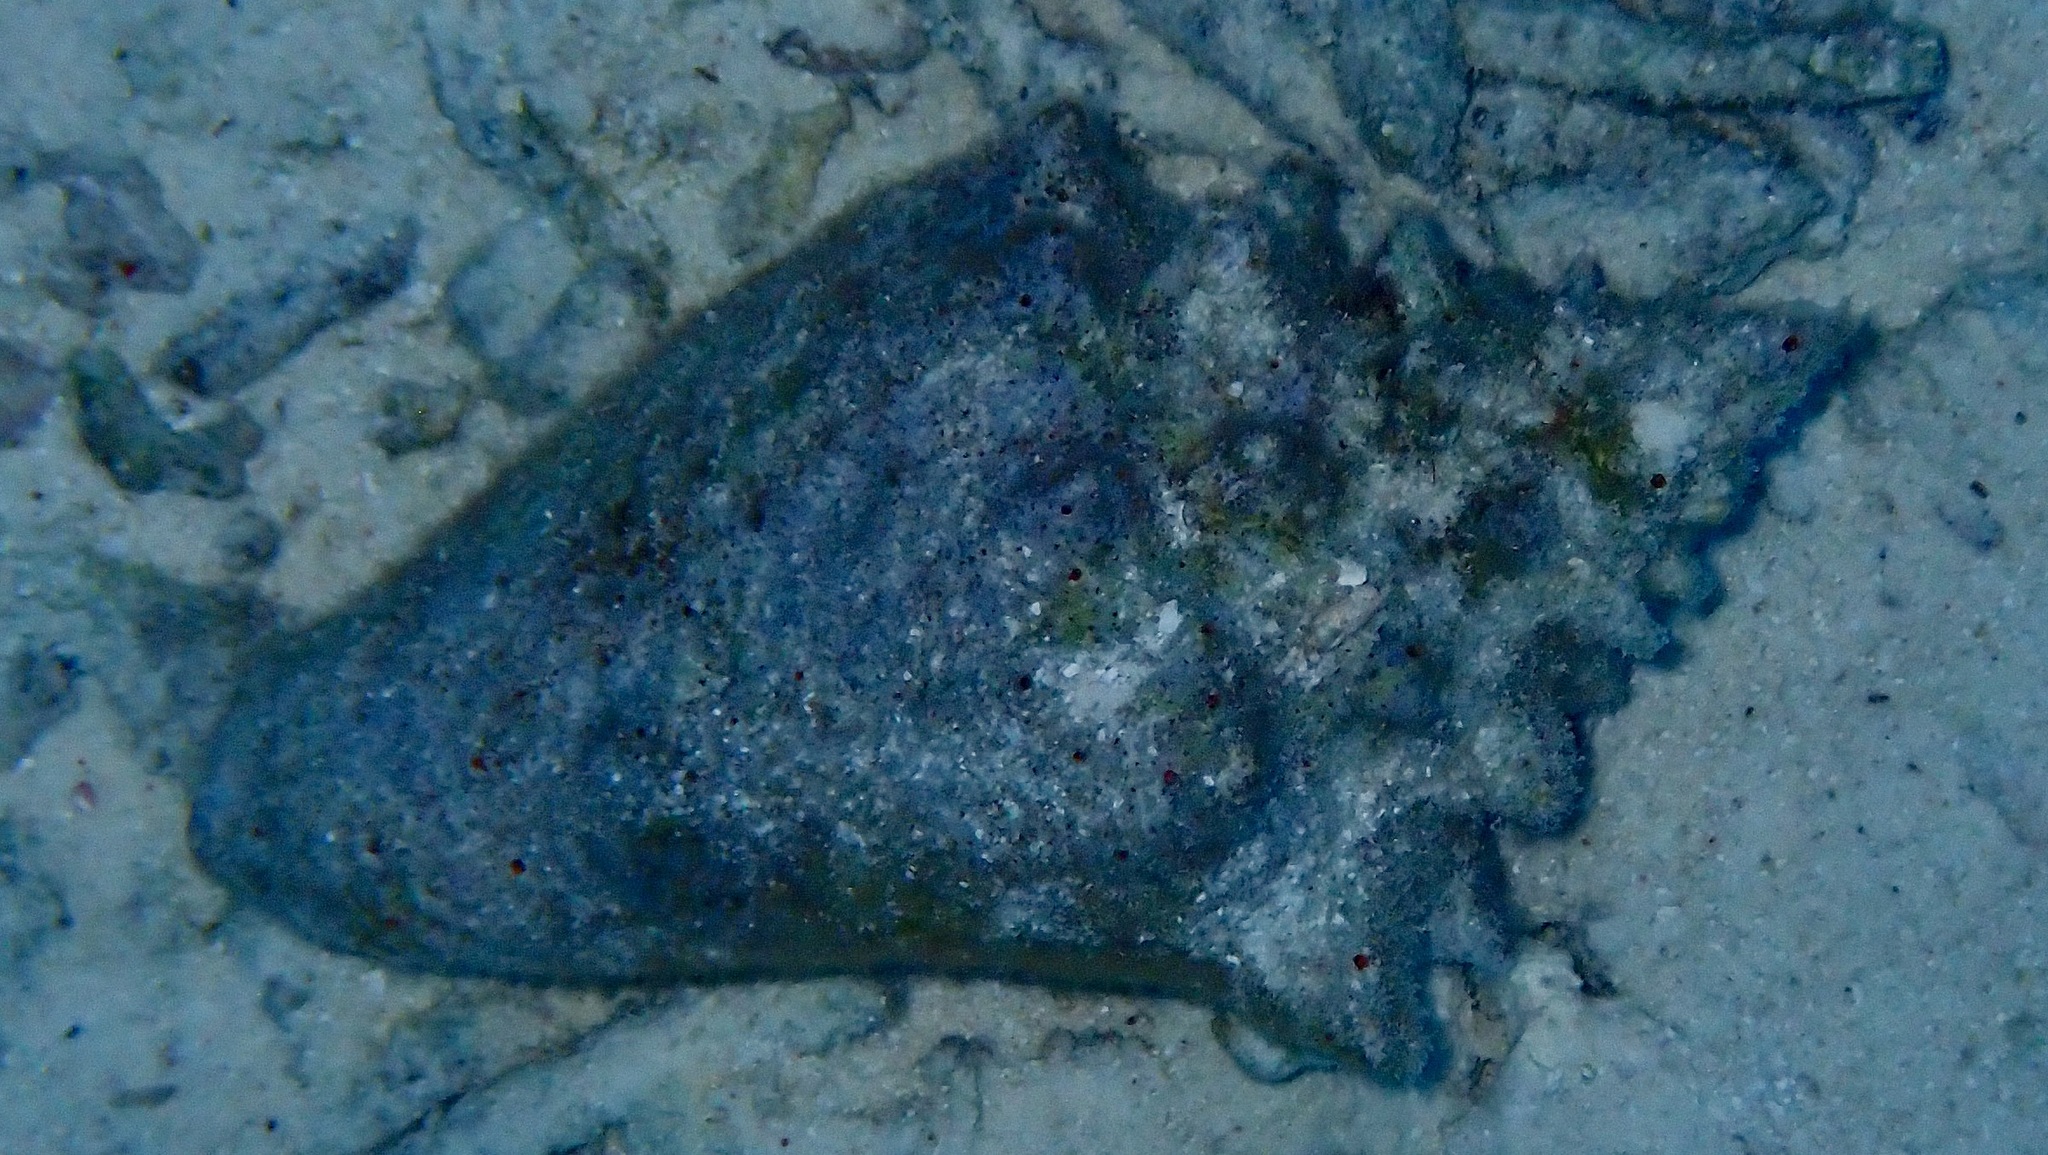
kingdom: Animalia
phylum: Mollusca
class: Gastropoda
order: Littorinimorpha
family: Strombidae
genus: Aliger
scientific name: Aliger gigas
